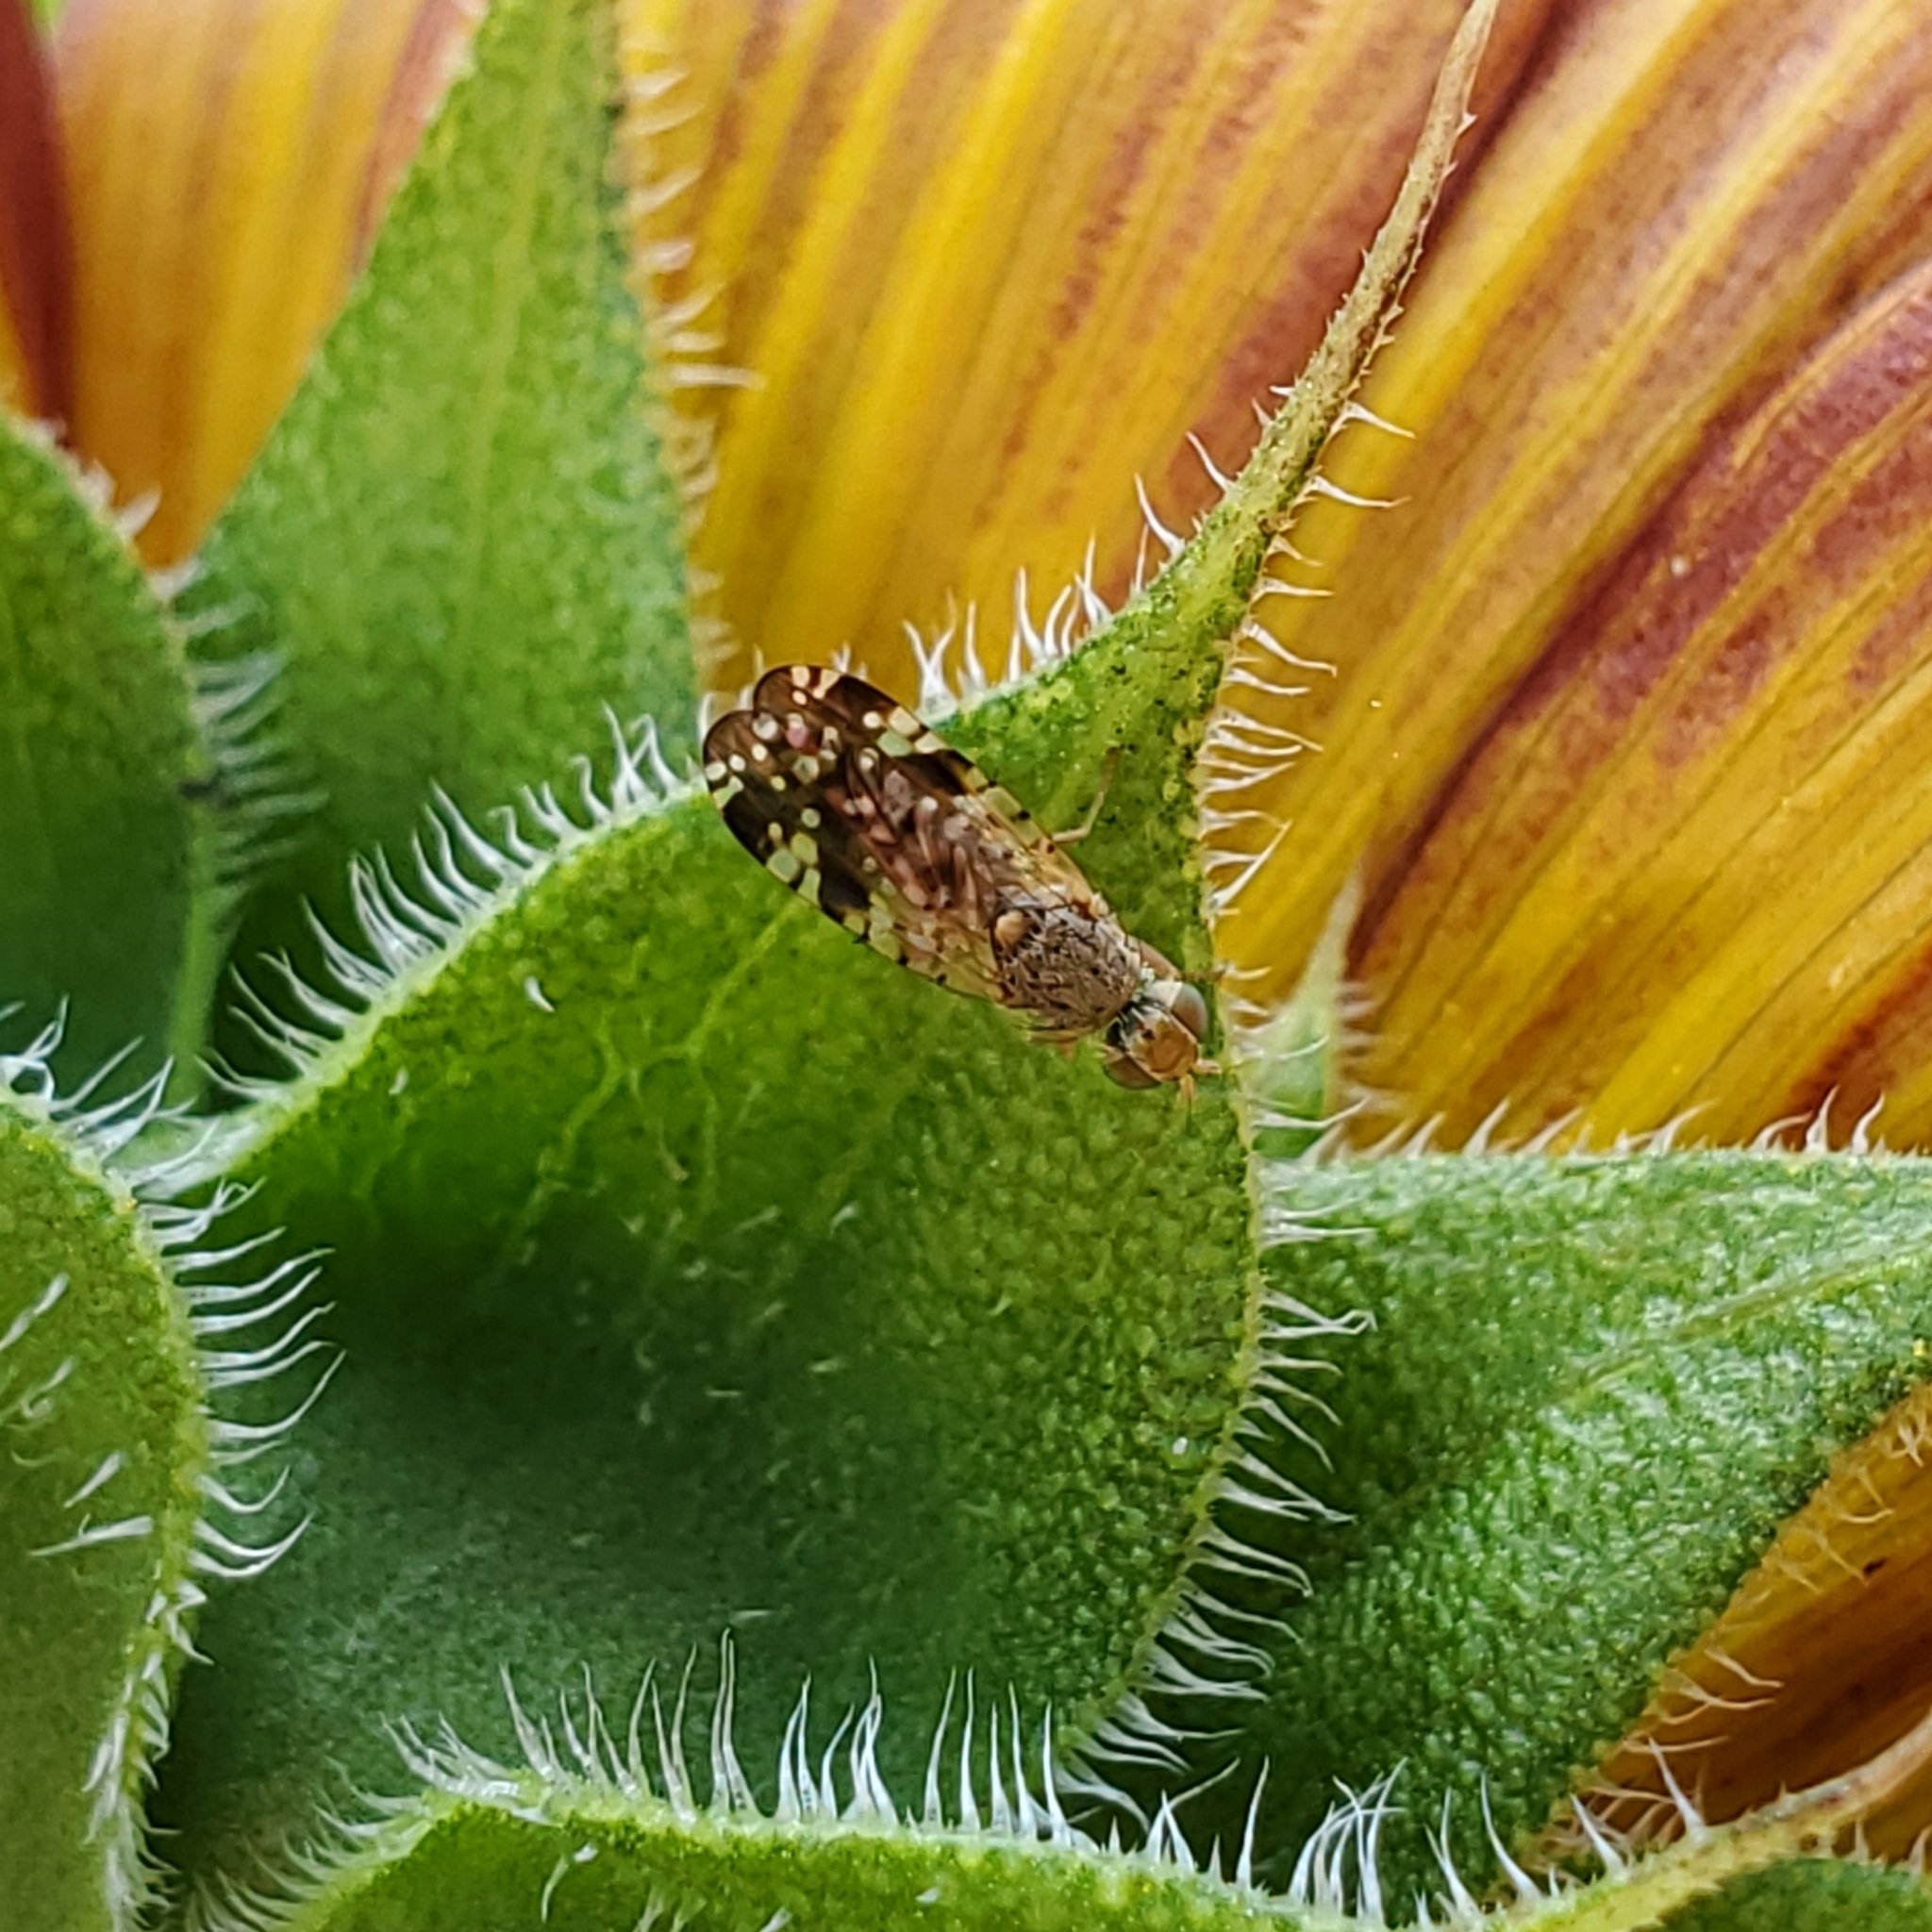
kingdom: Animalia
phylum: Arthropoda
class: Insecta
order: Diptera
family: Tephritidae
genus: Neotephritis
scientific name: Neotephritis finalis
